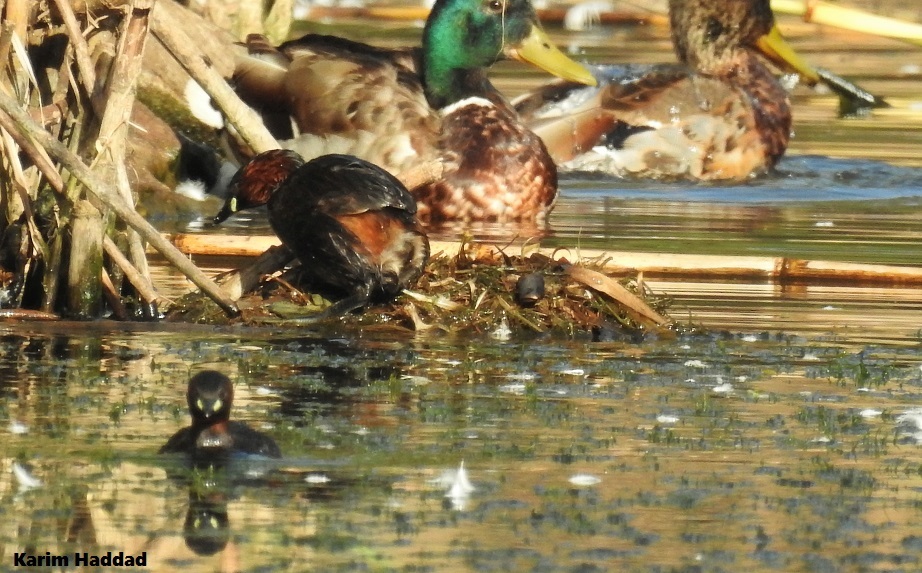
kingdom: Animalia
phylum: Chordata
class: Aves
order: Podicipediformes
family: Podicipedidae
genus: Tachybaptus
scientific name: Tachybaptus ruficollis
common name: Little grebe
